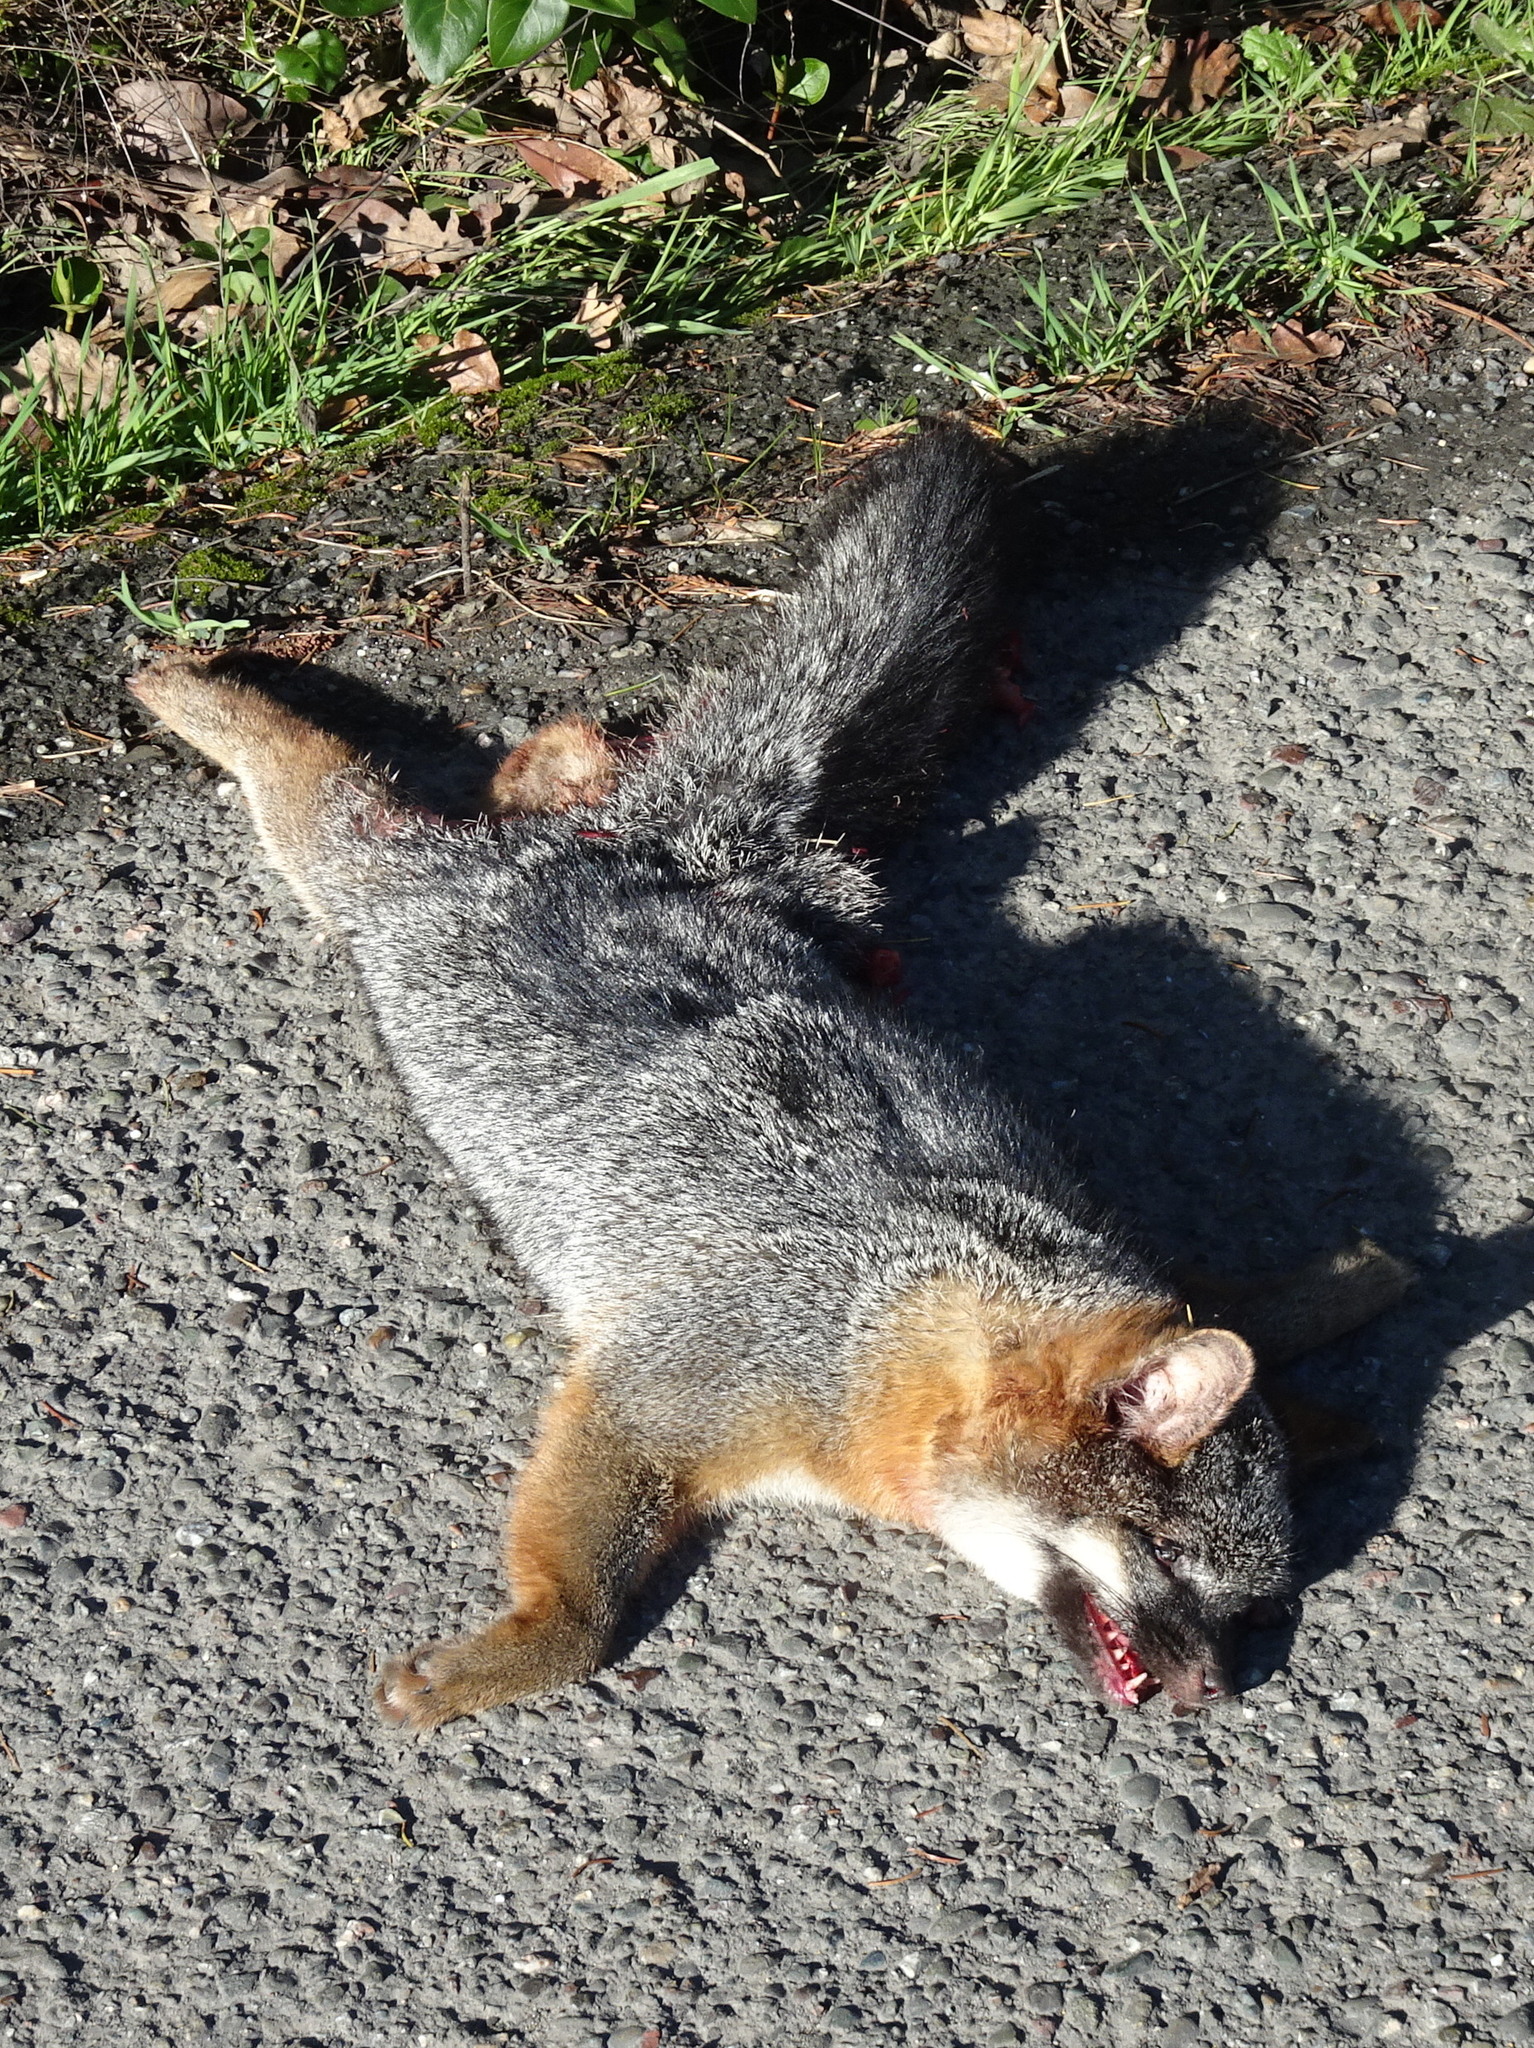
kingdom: Animalia
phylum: Chordata
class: Mammalia
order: Carnivora
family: Canidae
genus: Urocyon
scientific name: Urocyon cinereoargenteus
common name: Gray fox
